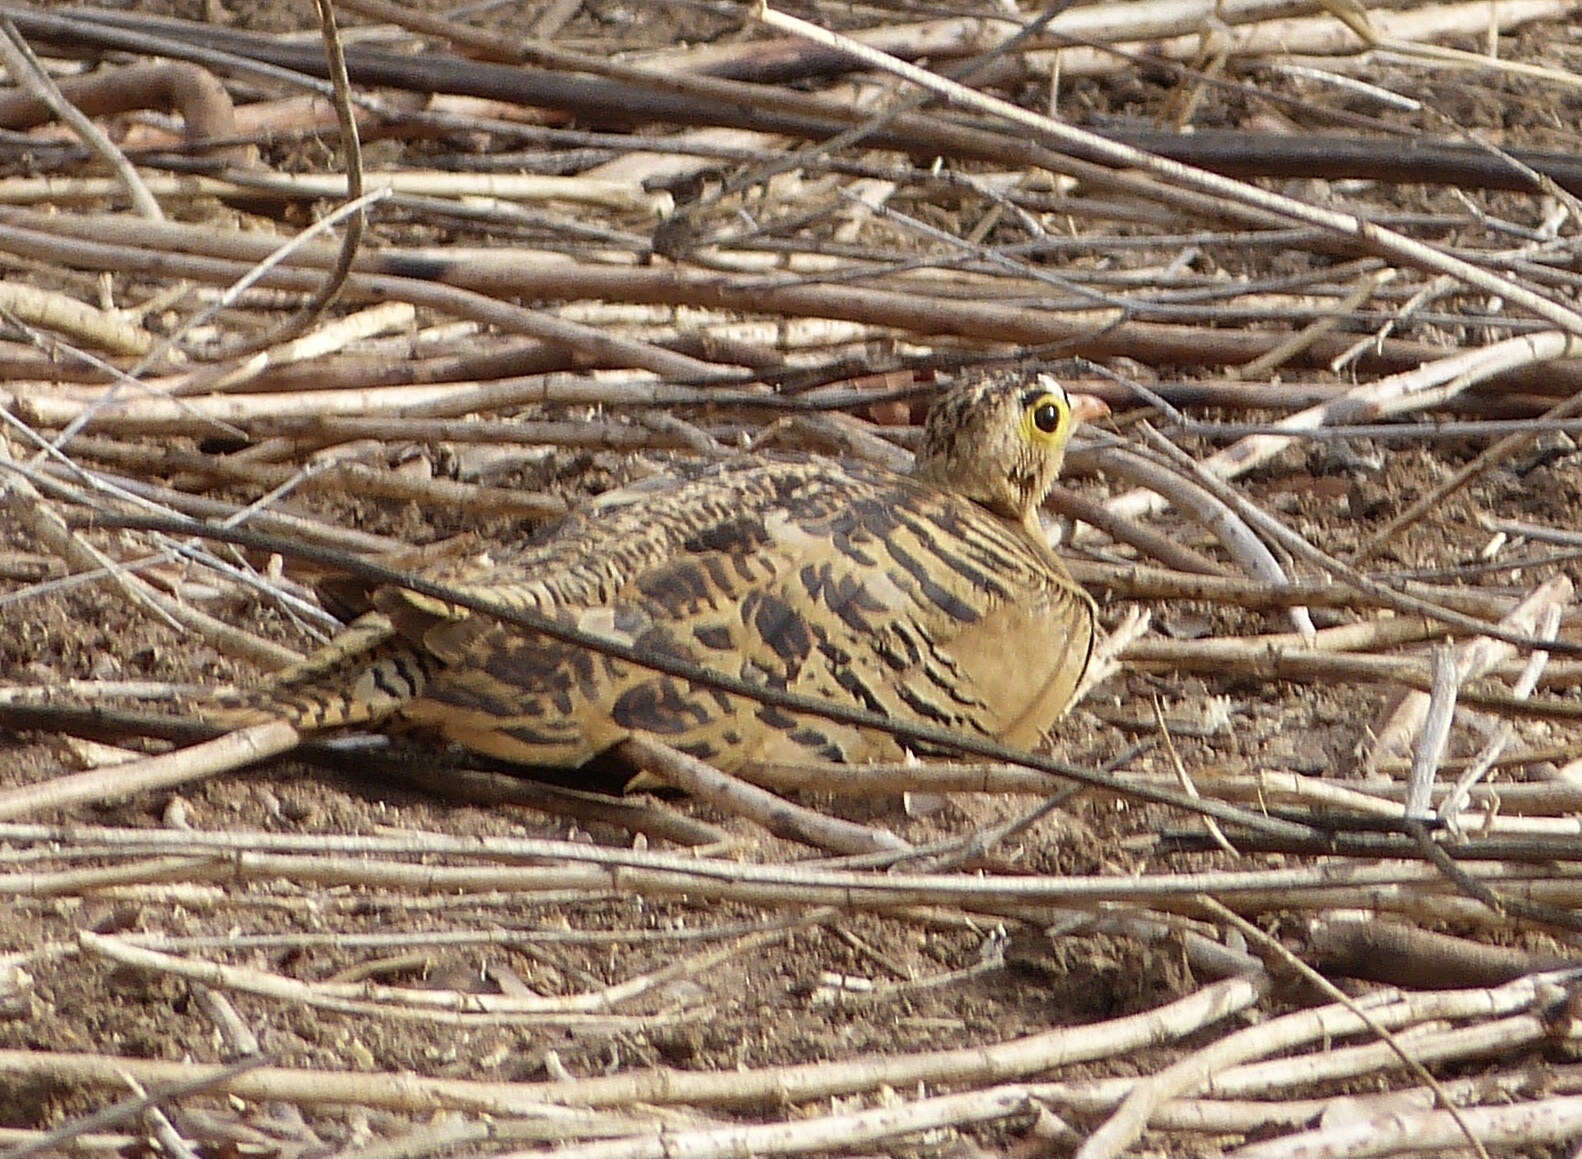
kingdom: Animalia
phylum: Chordata
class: Aves
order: Pteroclidiformes
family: Pteroclididae
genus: Pterocles
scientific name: Pterocles quadricinctus
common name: Four-banded sandgrouse
